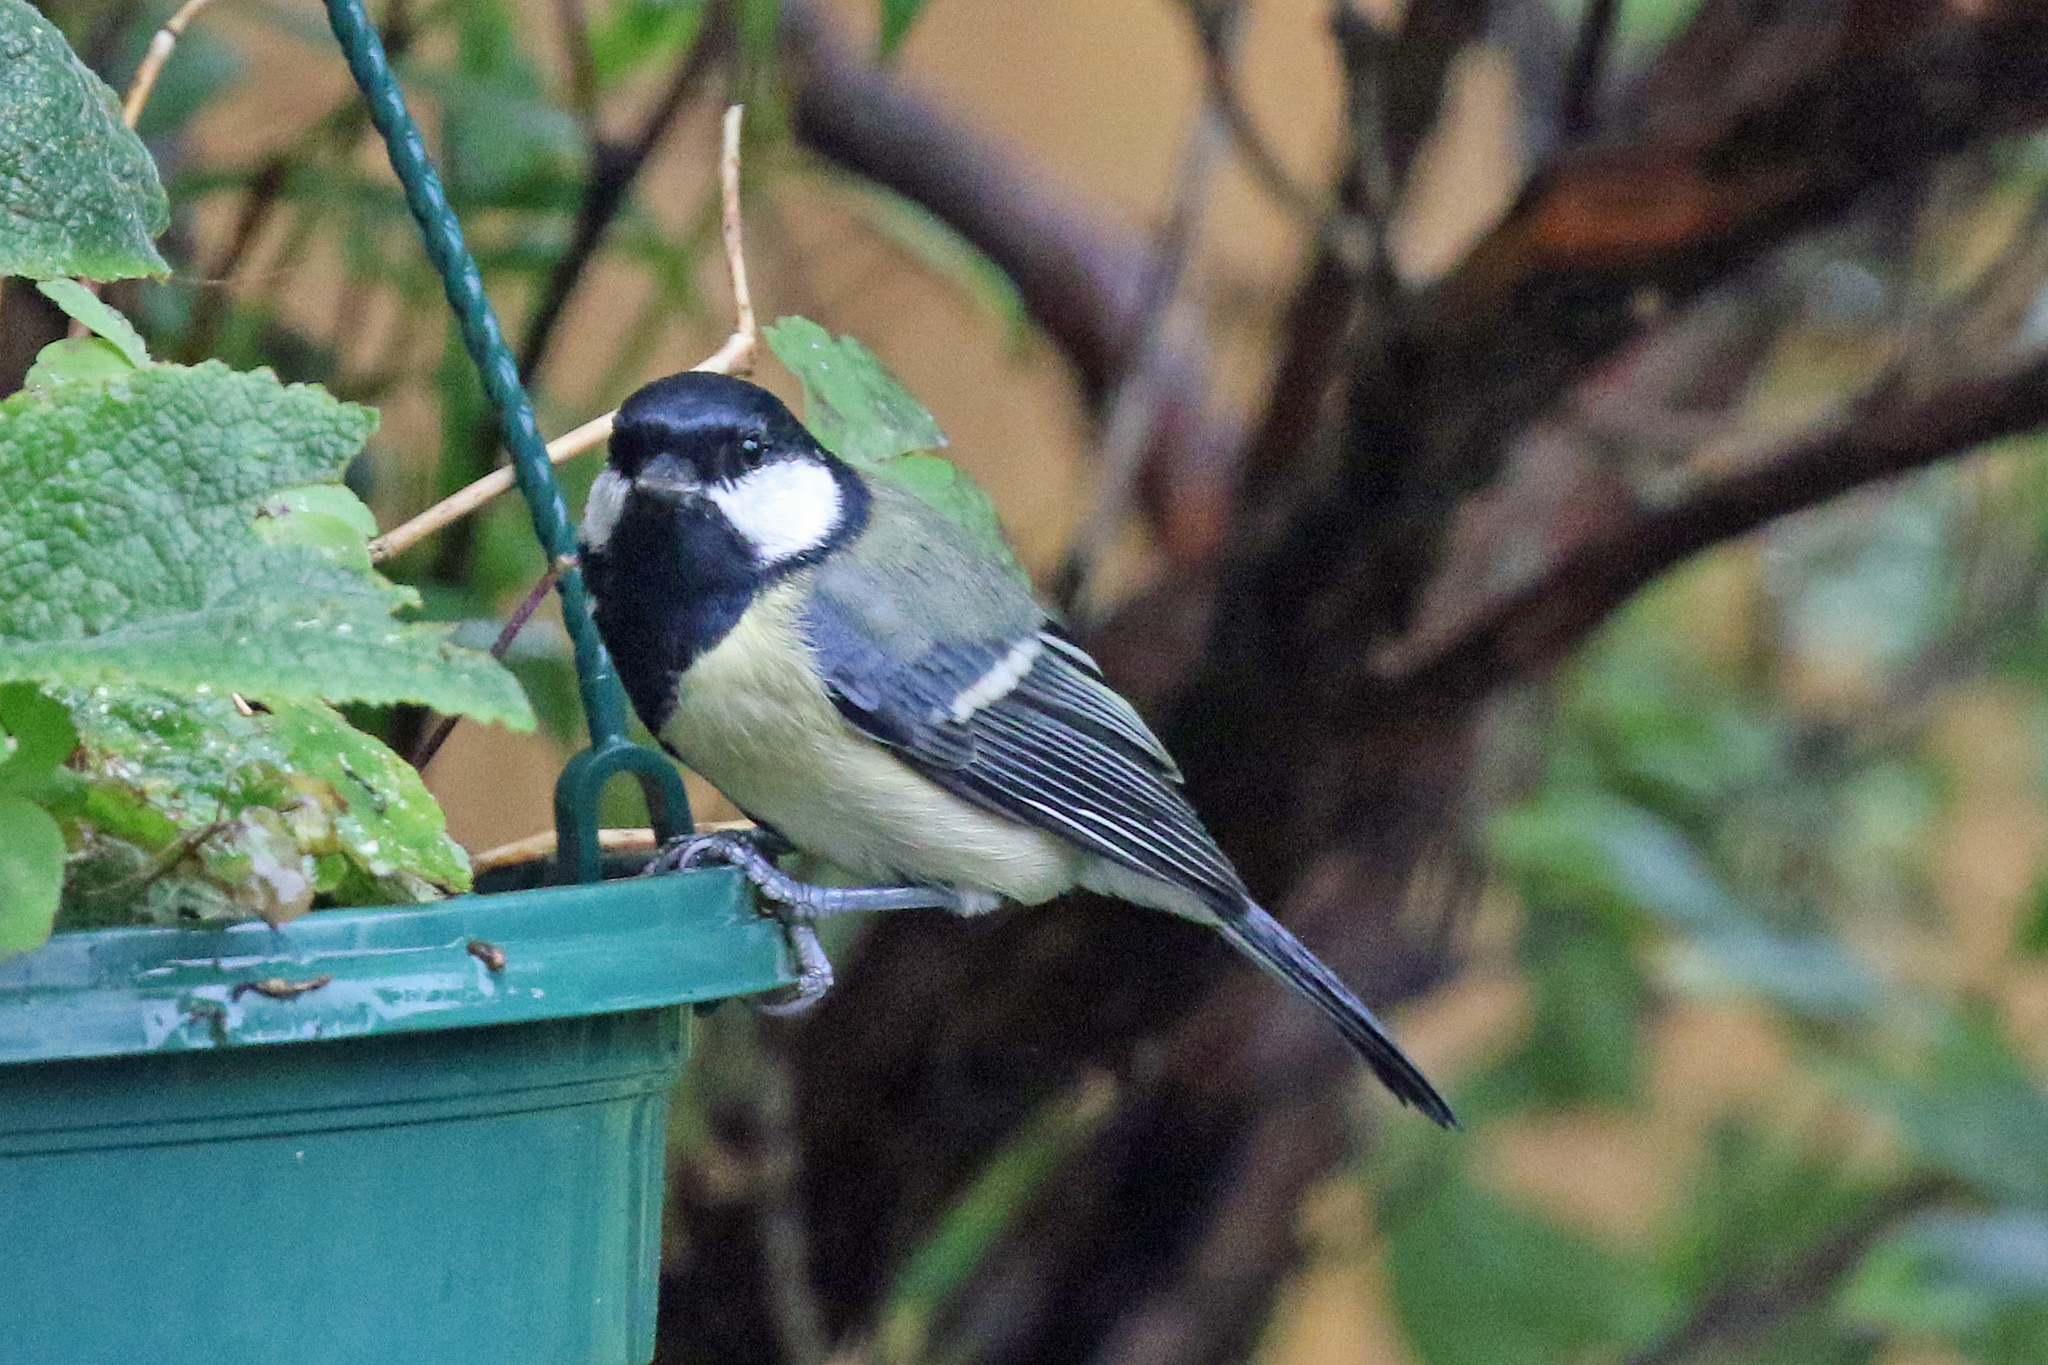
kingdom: Animalia
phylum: Chordata
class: Aves
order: Passeriformes
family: Paridae
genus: Parus
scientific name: Parus major
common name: Great tit
